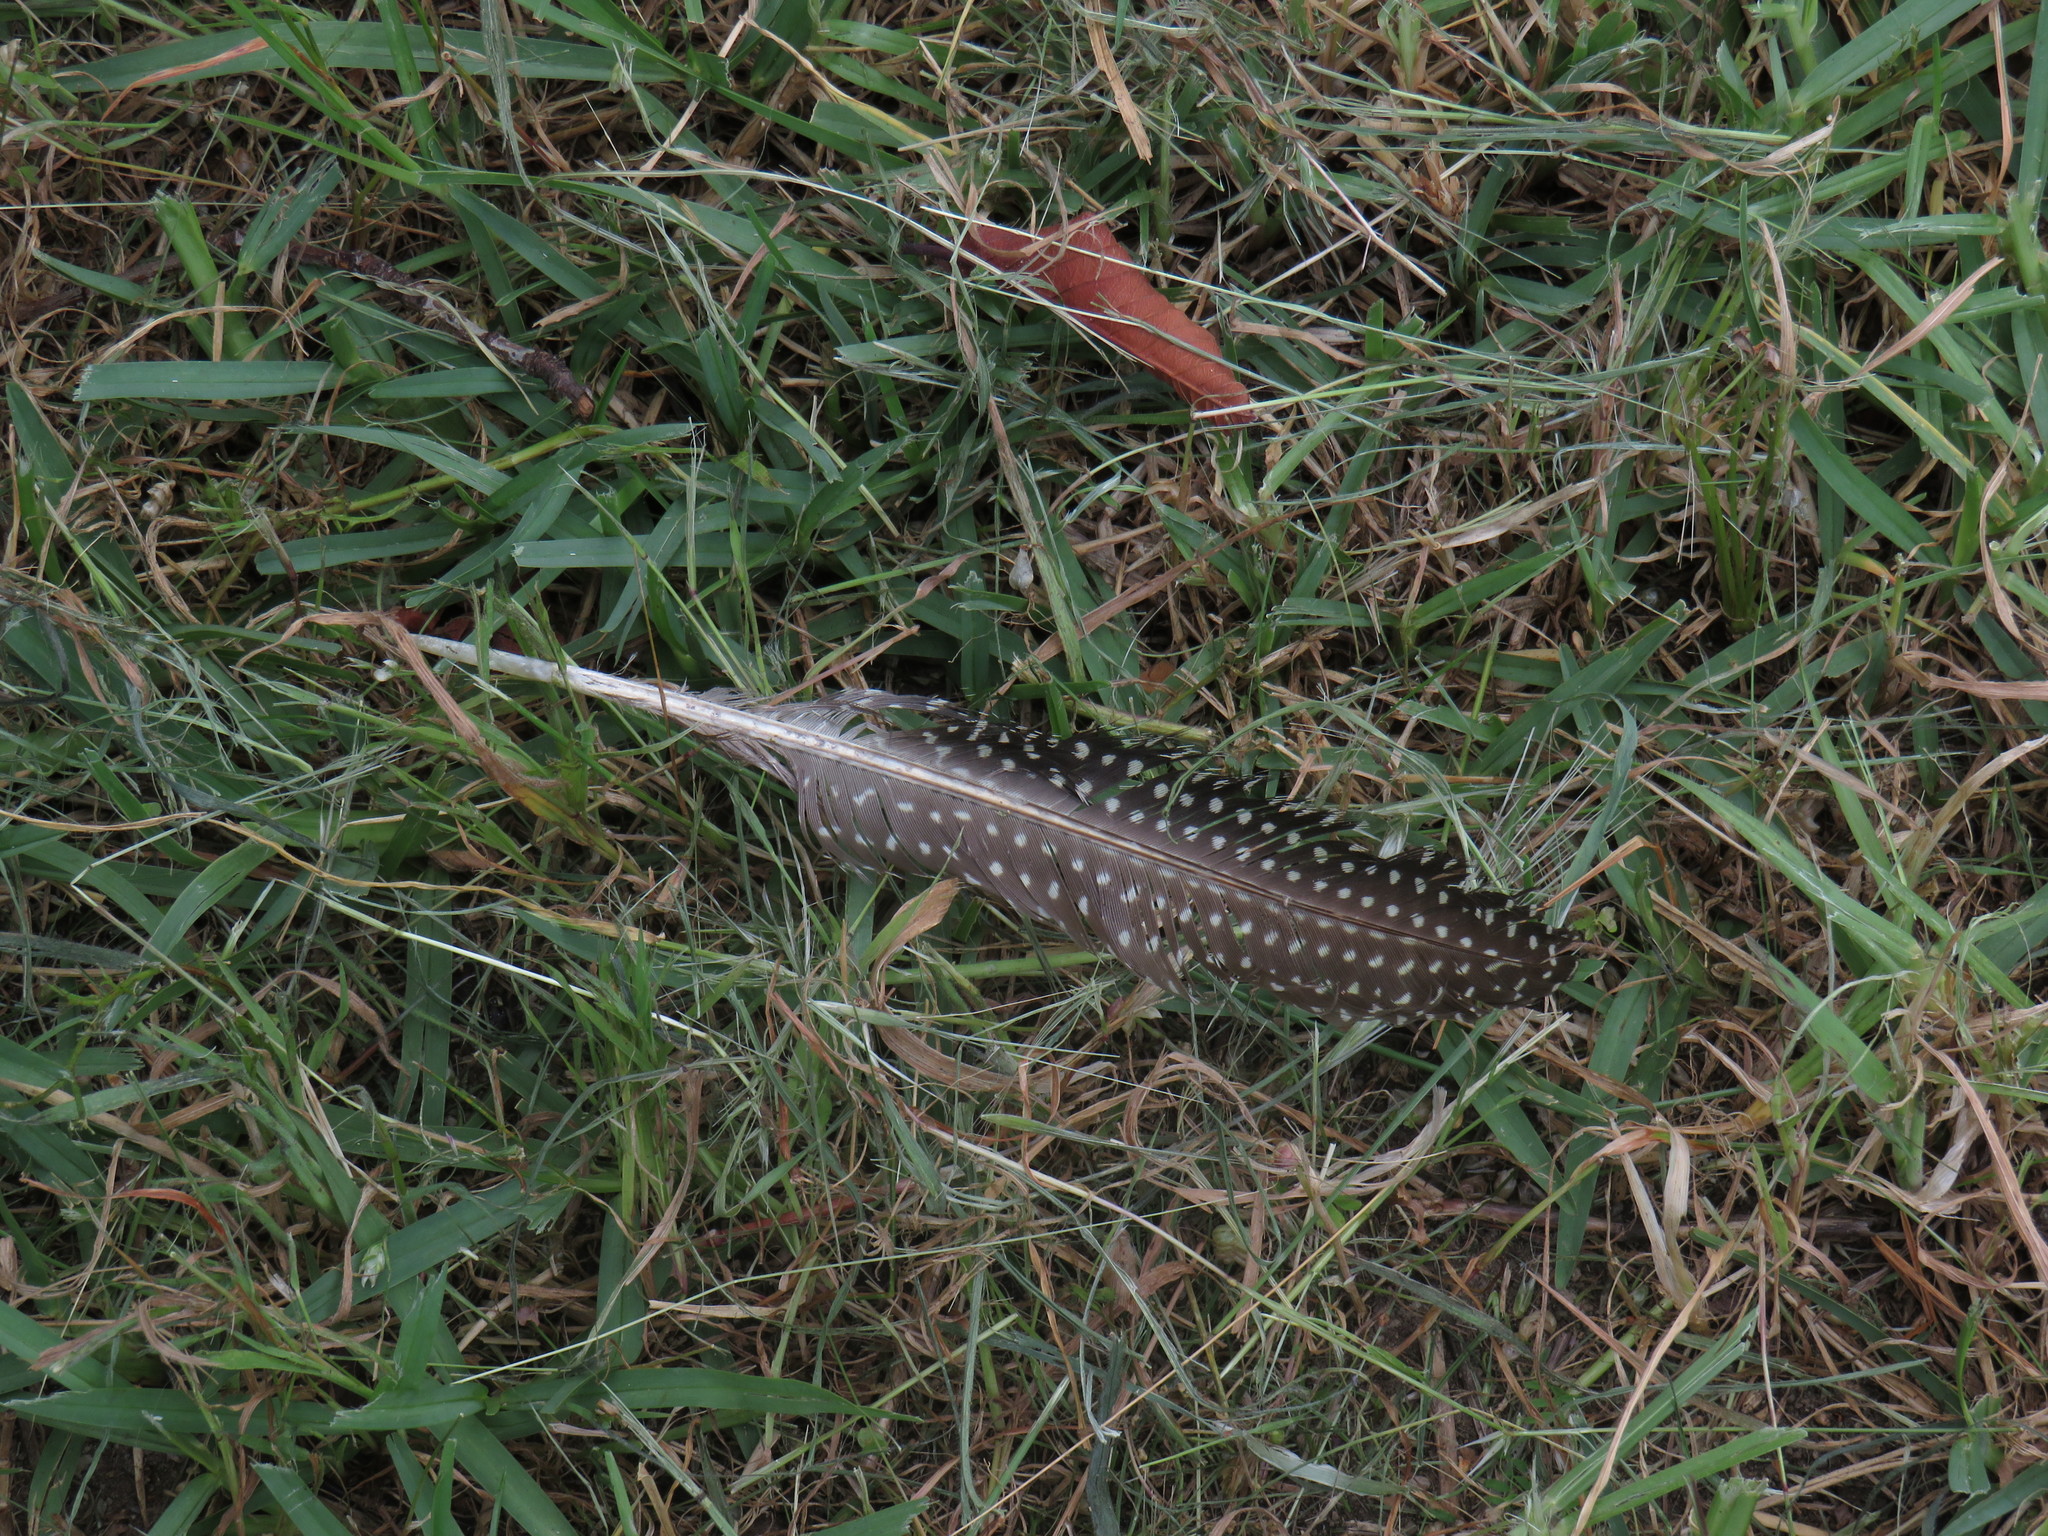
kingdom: Animalia
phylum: Chordata
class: Aves
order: Galliformes
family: Numididae
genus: Numida
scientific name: Numida meleagris
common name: Helmeted guineafowl
